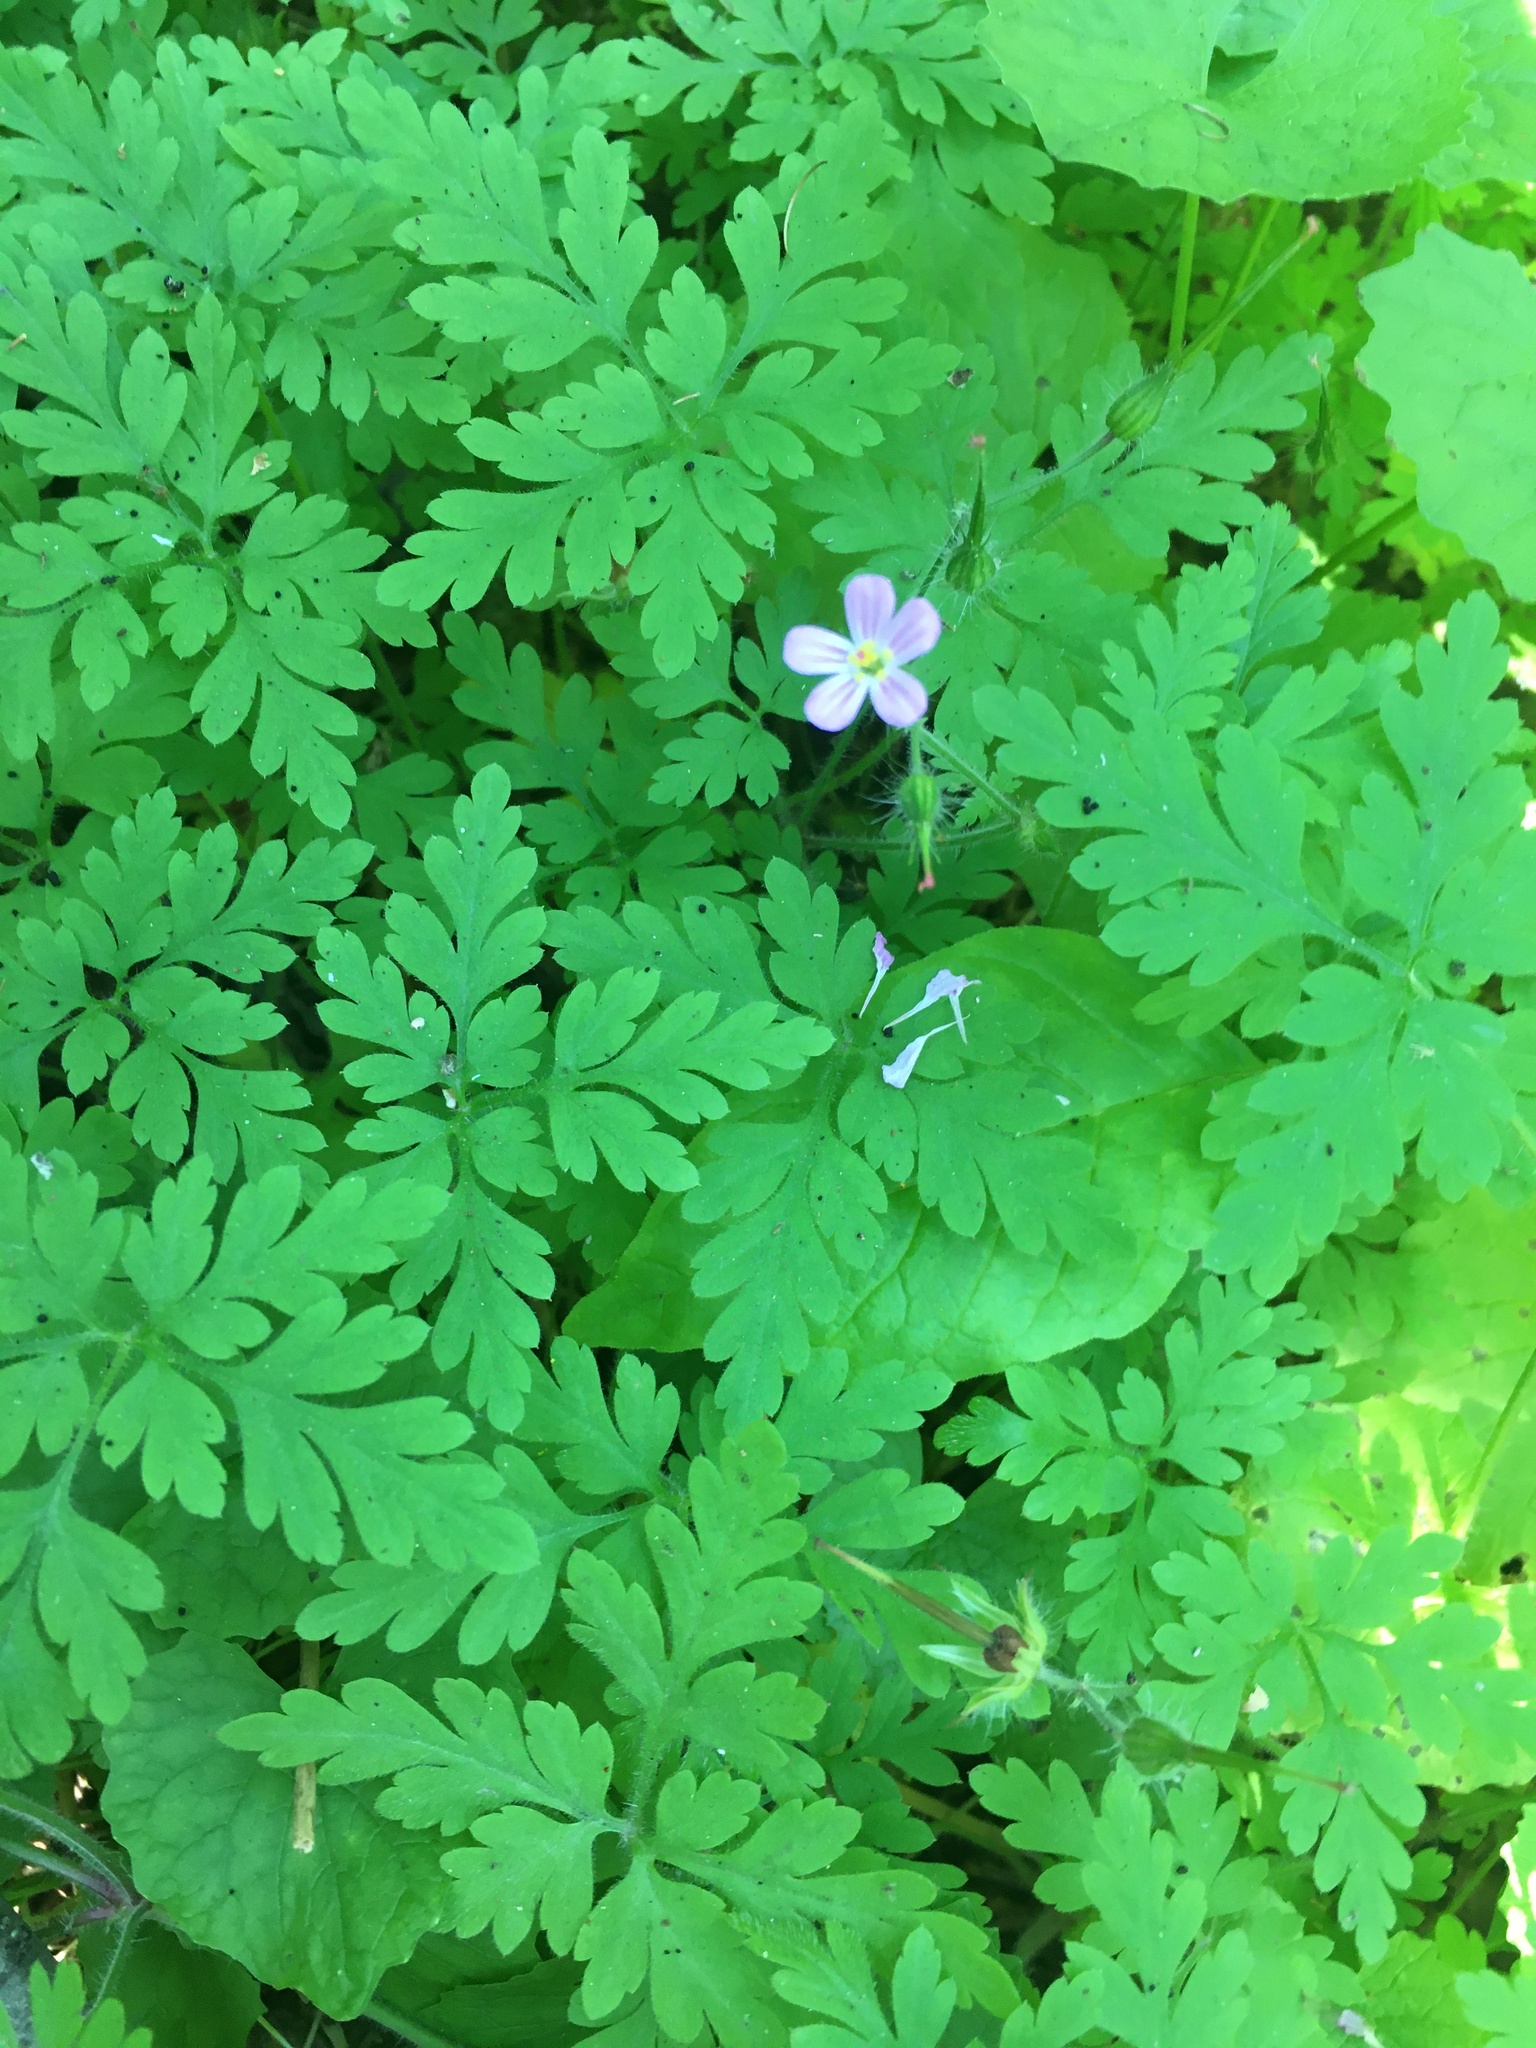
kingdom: Plantae
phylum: Tracheophyta
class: Magnoliopsida
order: Geraniales
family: Geraniaceae
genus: Geranium
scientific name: Geranium robertianum
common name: Herb-robert
